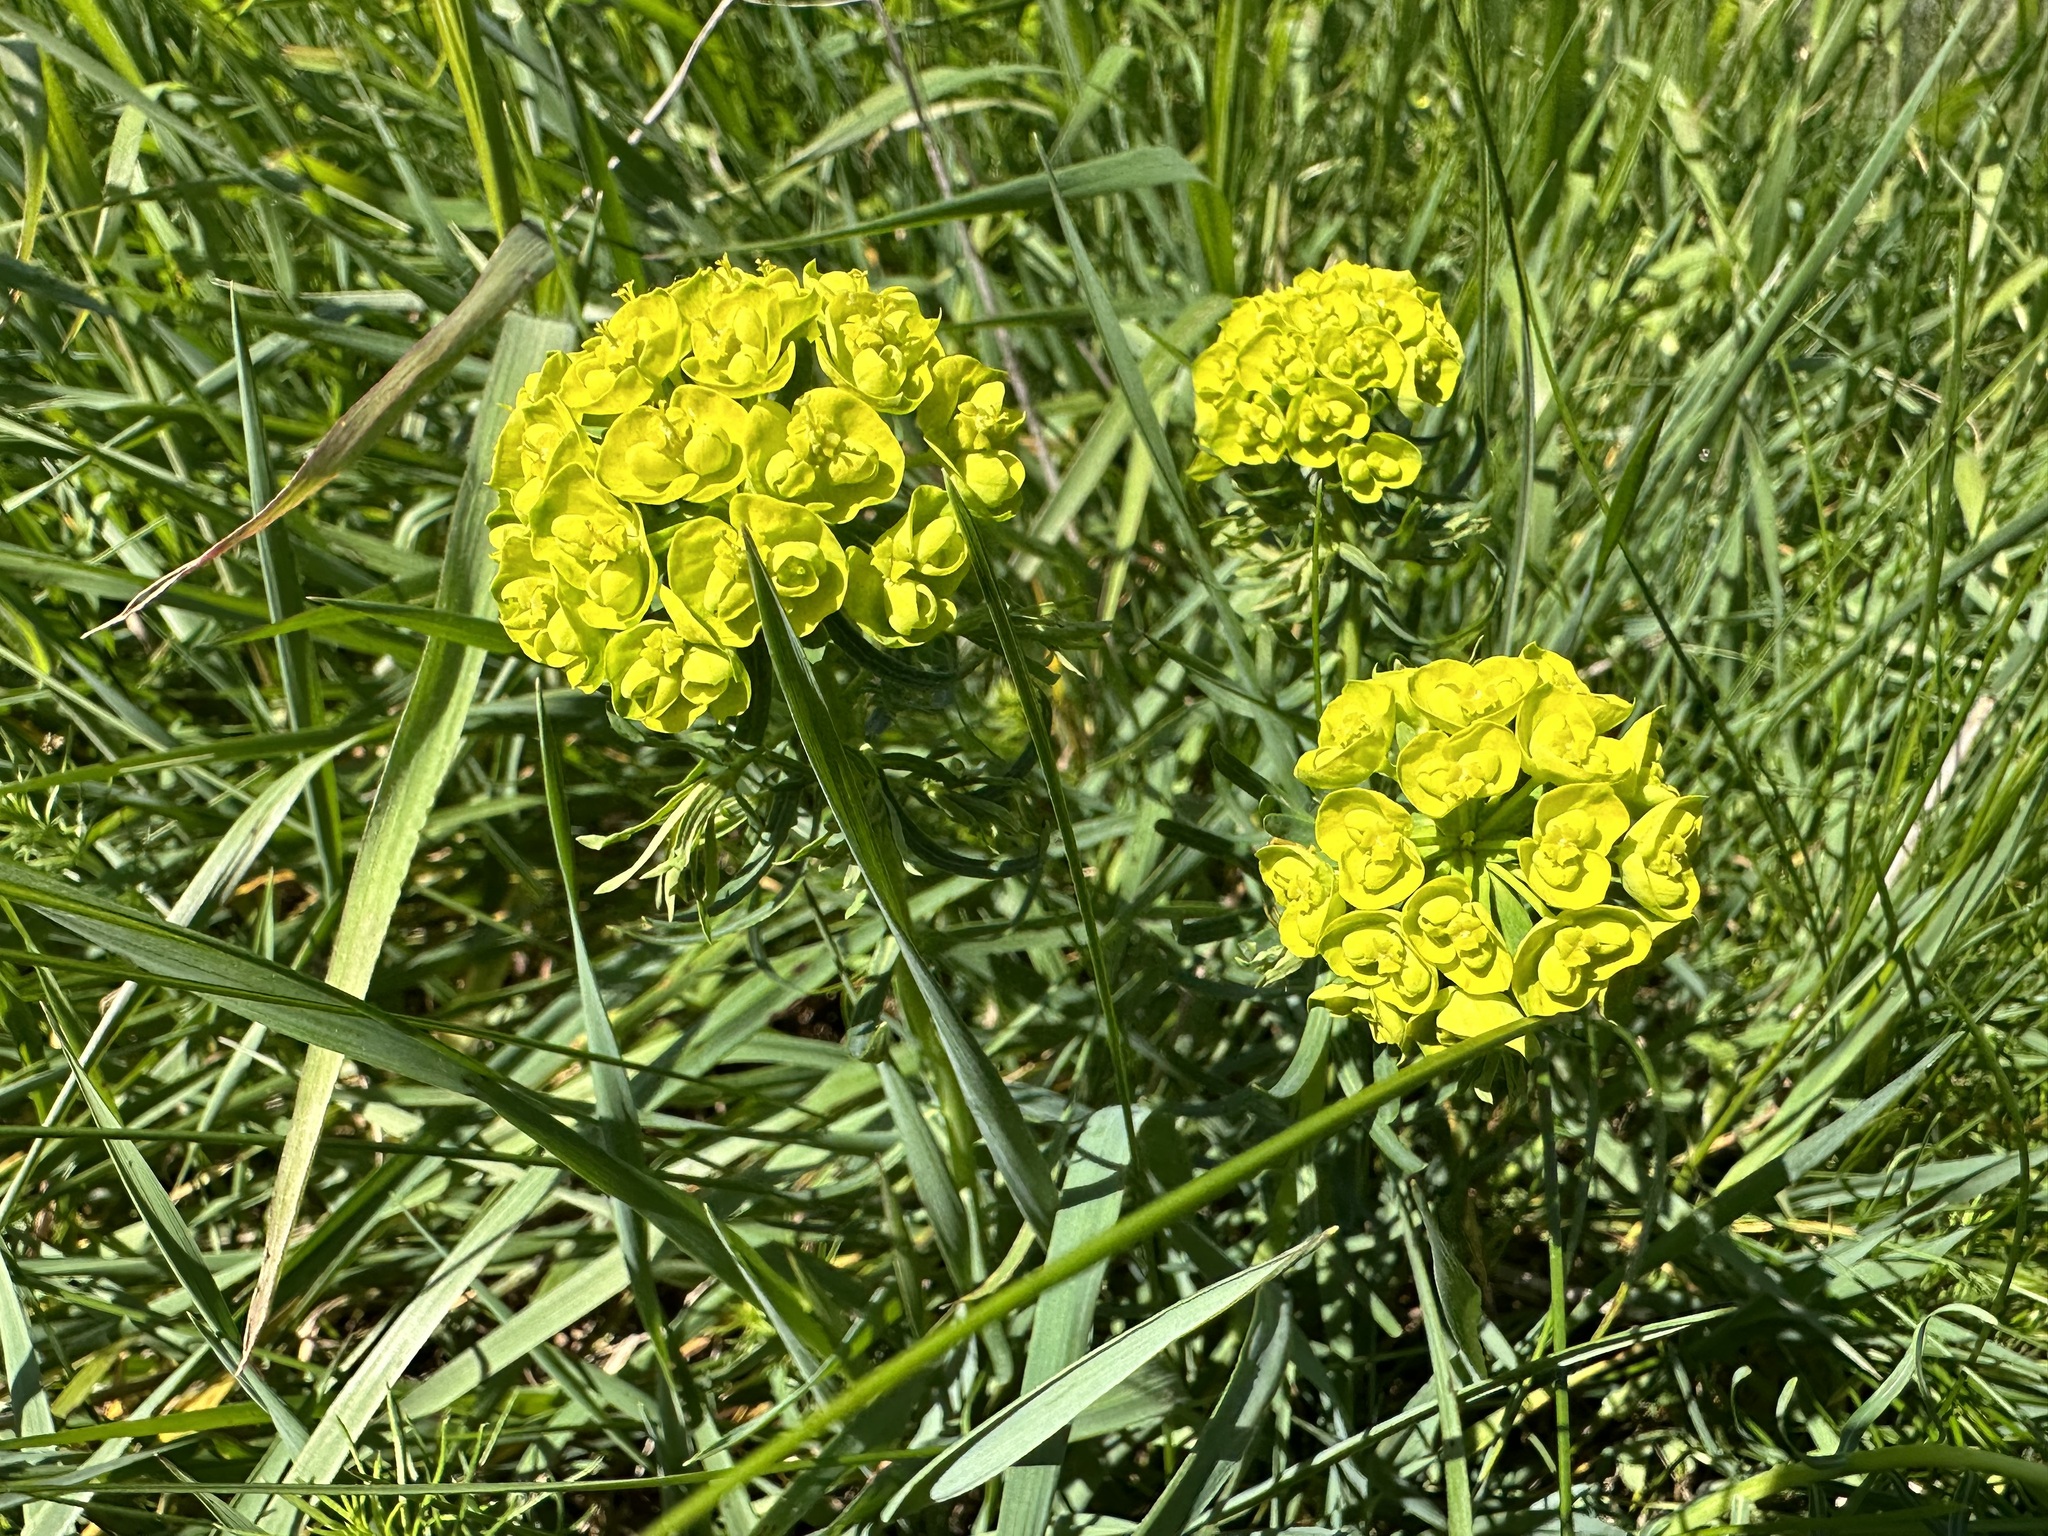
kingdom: Plantae
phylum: Tracheophyta
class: Magnoliopsida
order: Malpighiales
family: Euphorbiaceae
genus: Euphorbia
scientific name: Euphorbia cyparissias
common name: Cypress spurge
